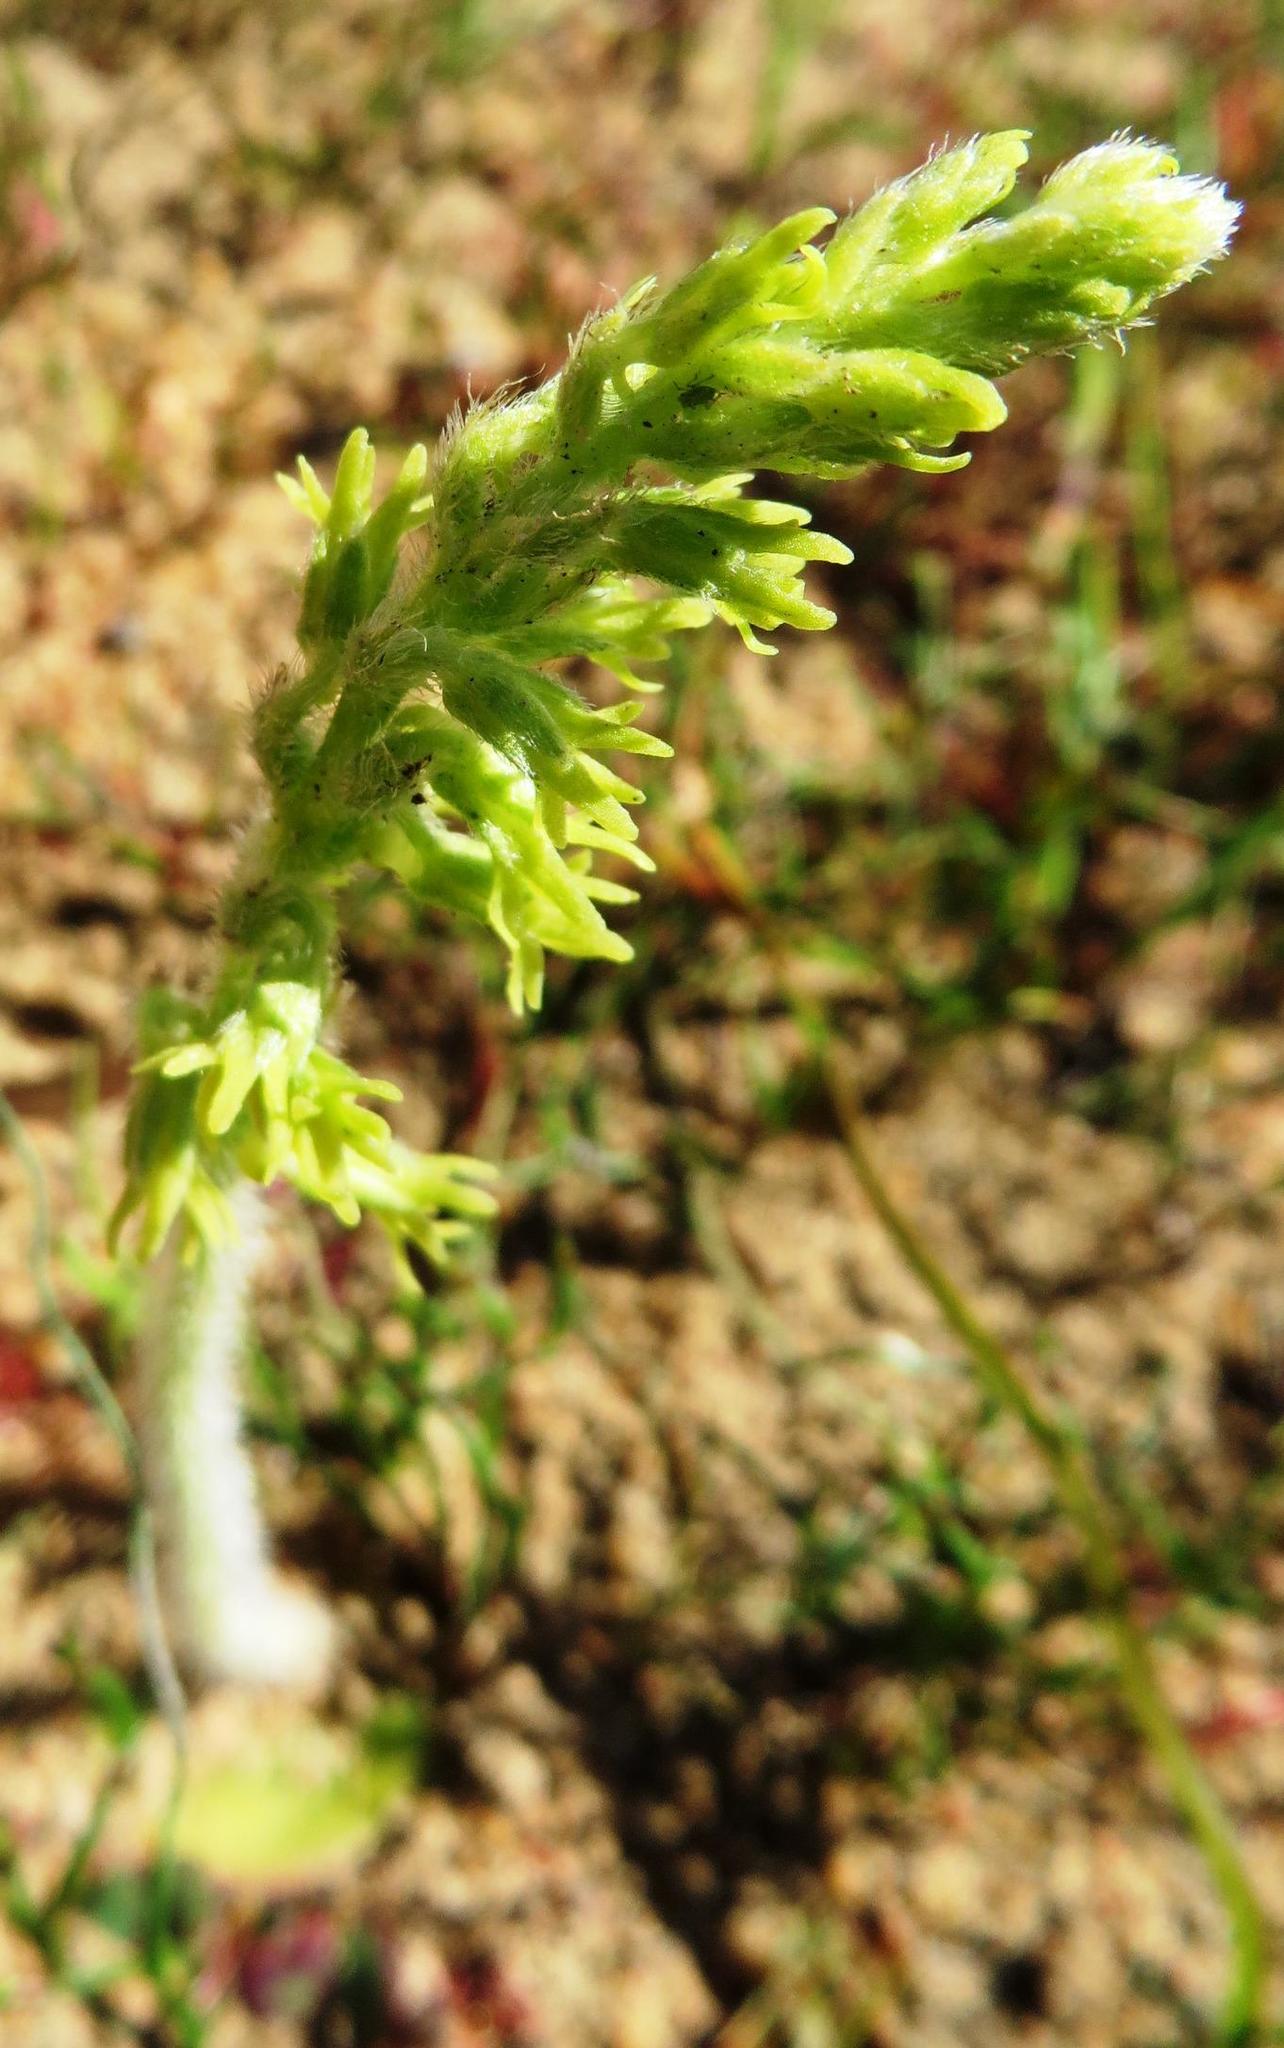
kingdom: Plantae
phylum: Tracheophyta
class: Liliopsida
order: Asparagales
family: Orchidaceae
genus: Holothrix
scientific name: Holothrix cernua
